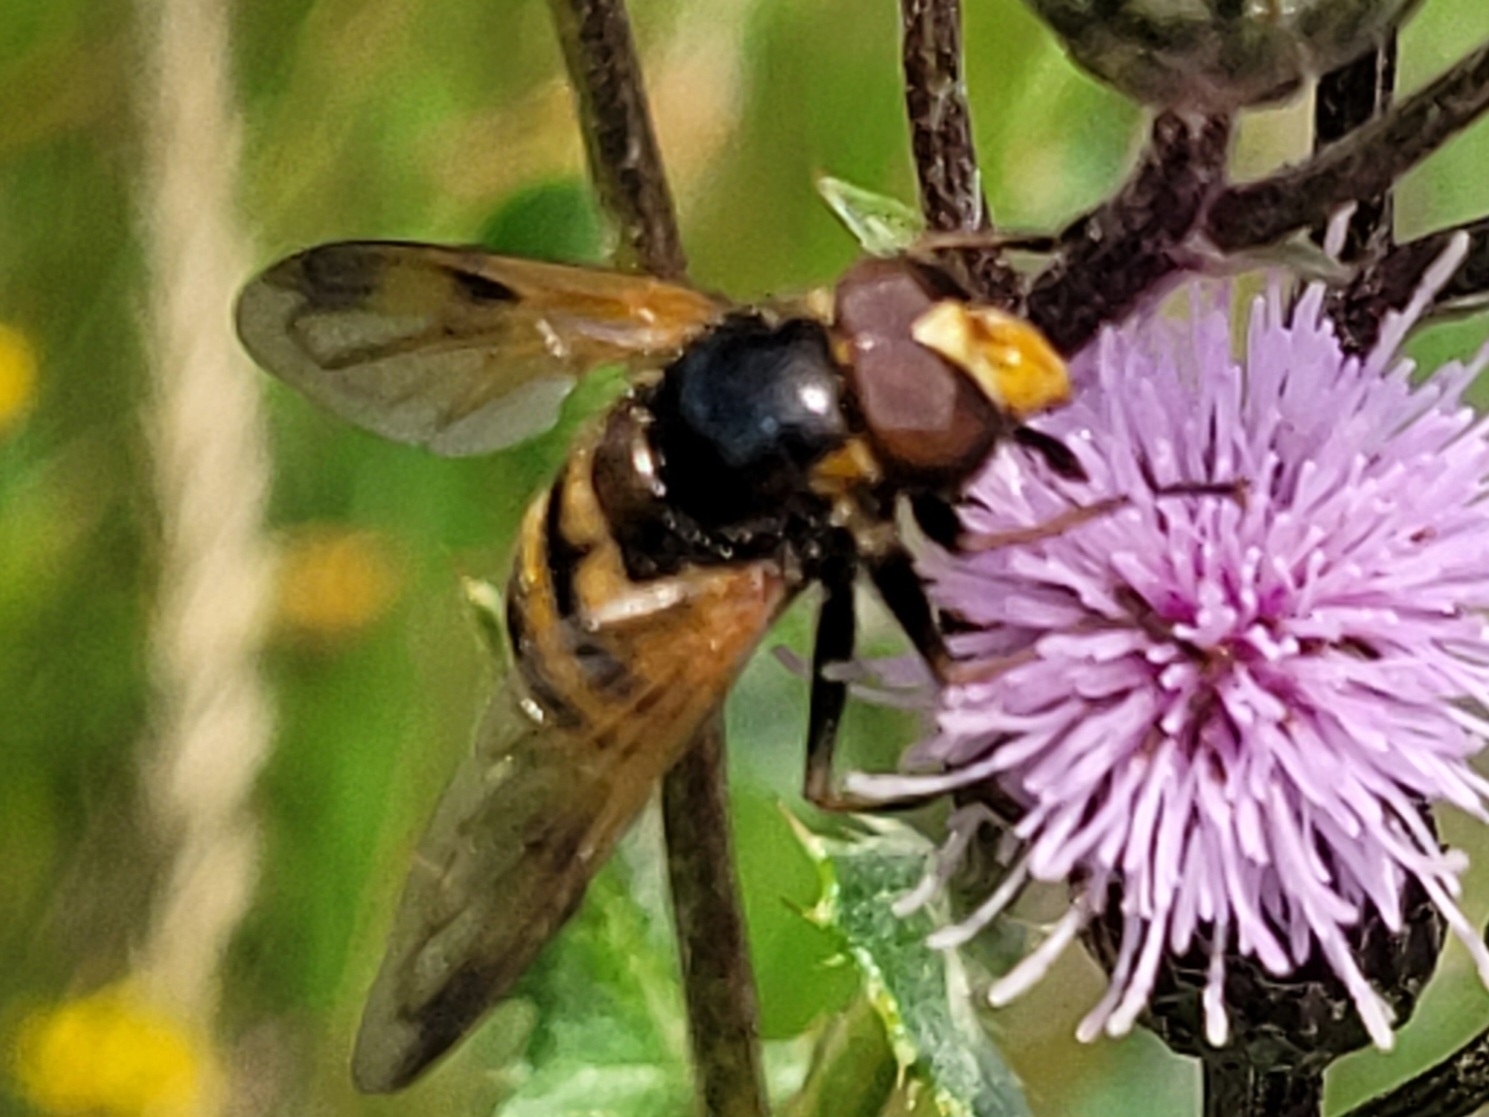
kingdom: Animalia
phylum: Arthropoda
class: Insecta
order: Diptera
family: Syrphidae
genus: Volucella
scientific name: Volucella inanis
